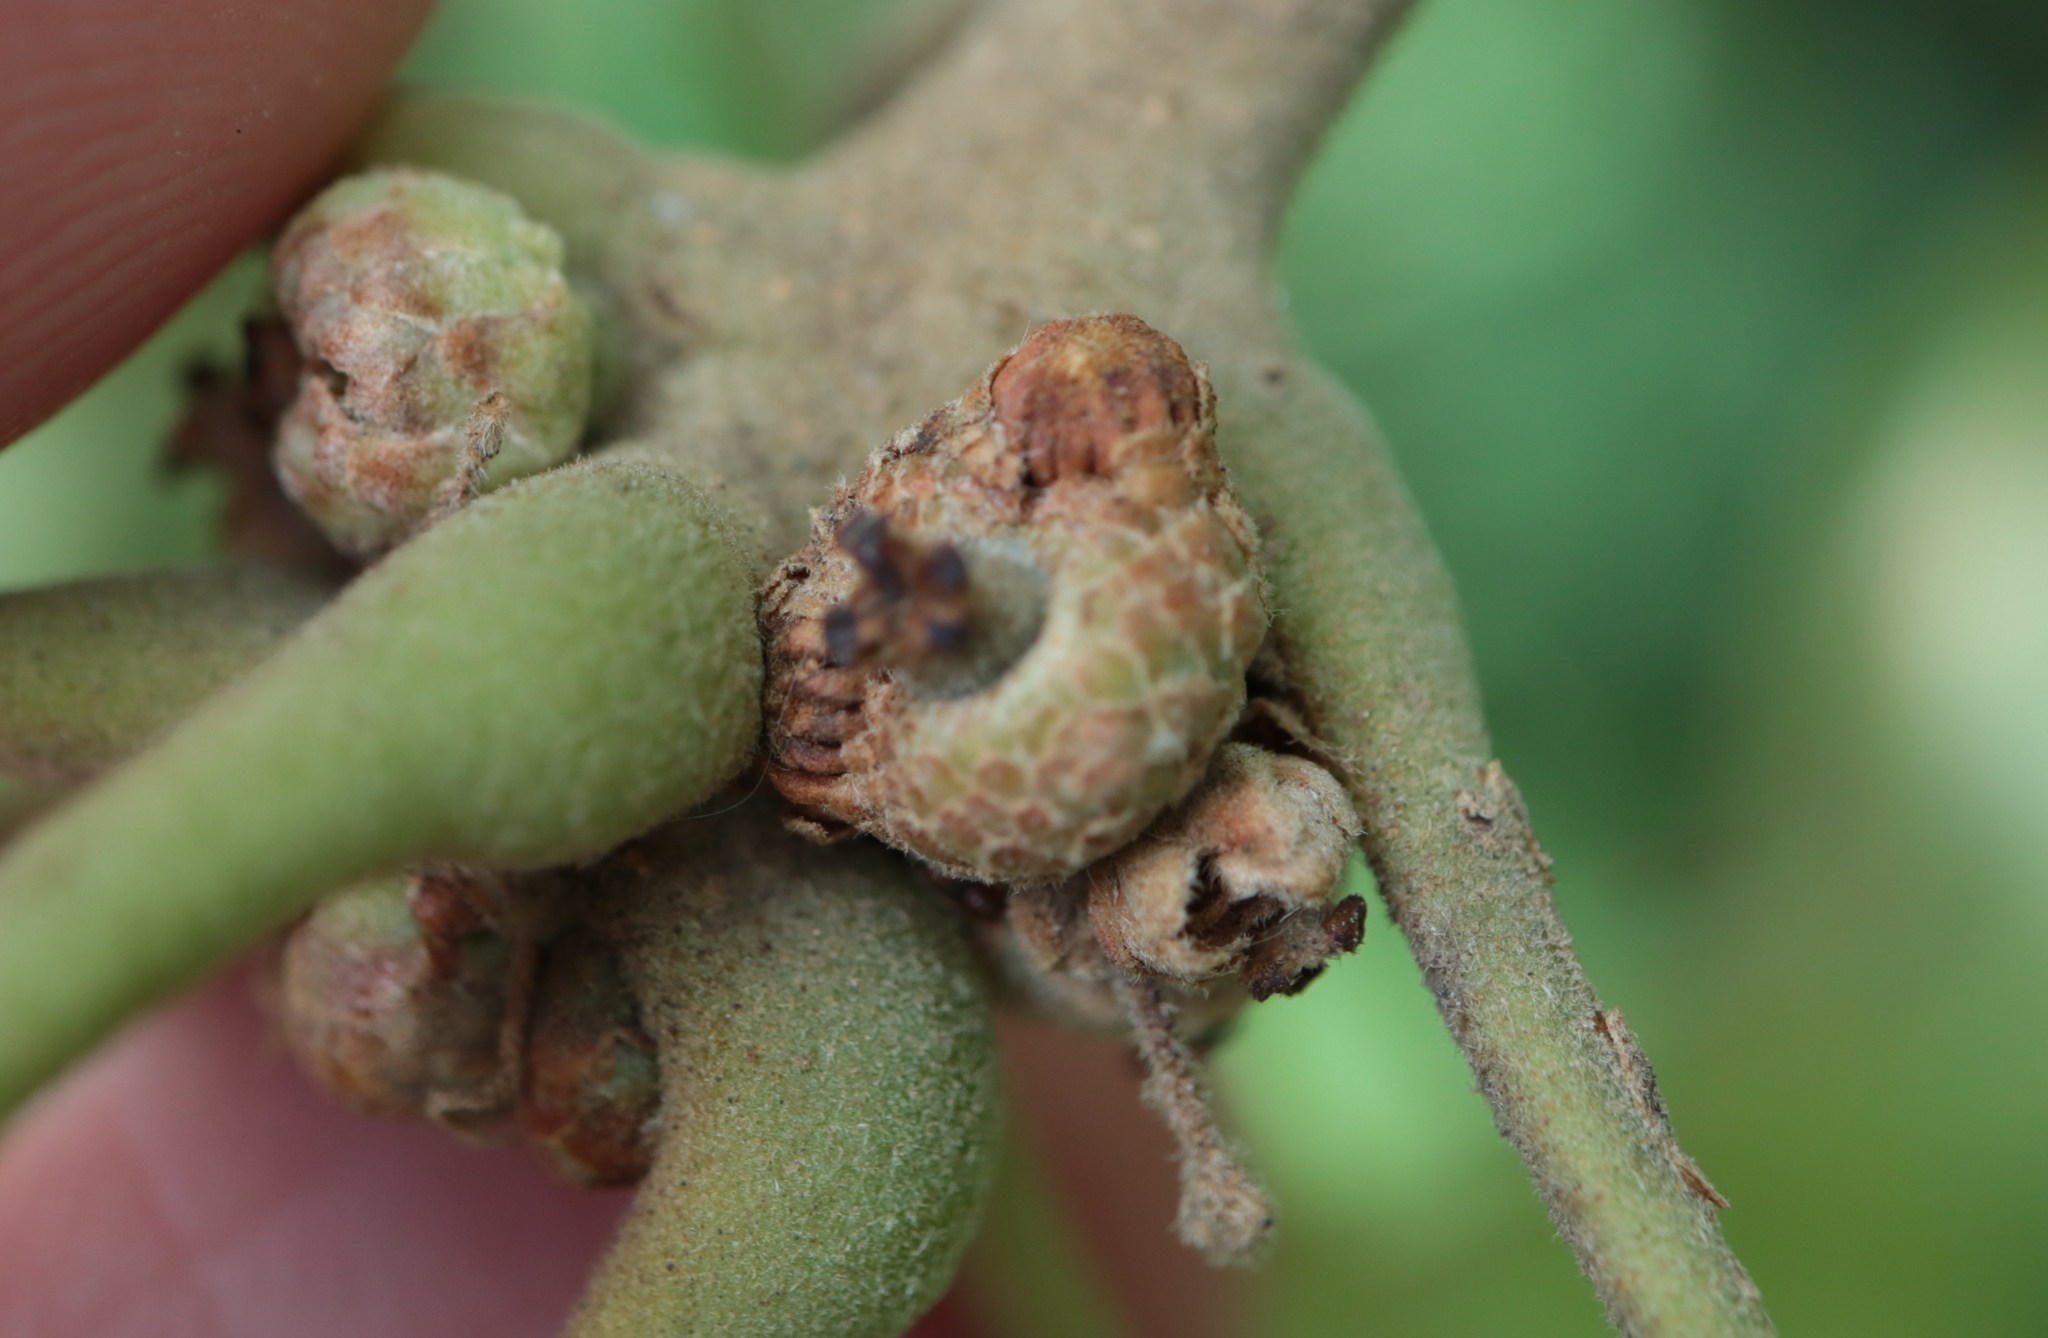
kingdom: Animalia
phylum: Arthropoda
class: Insecta
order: Hymenoptera
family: Cynipidae
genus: Callirhytis
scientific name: Callirhytis
